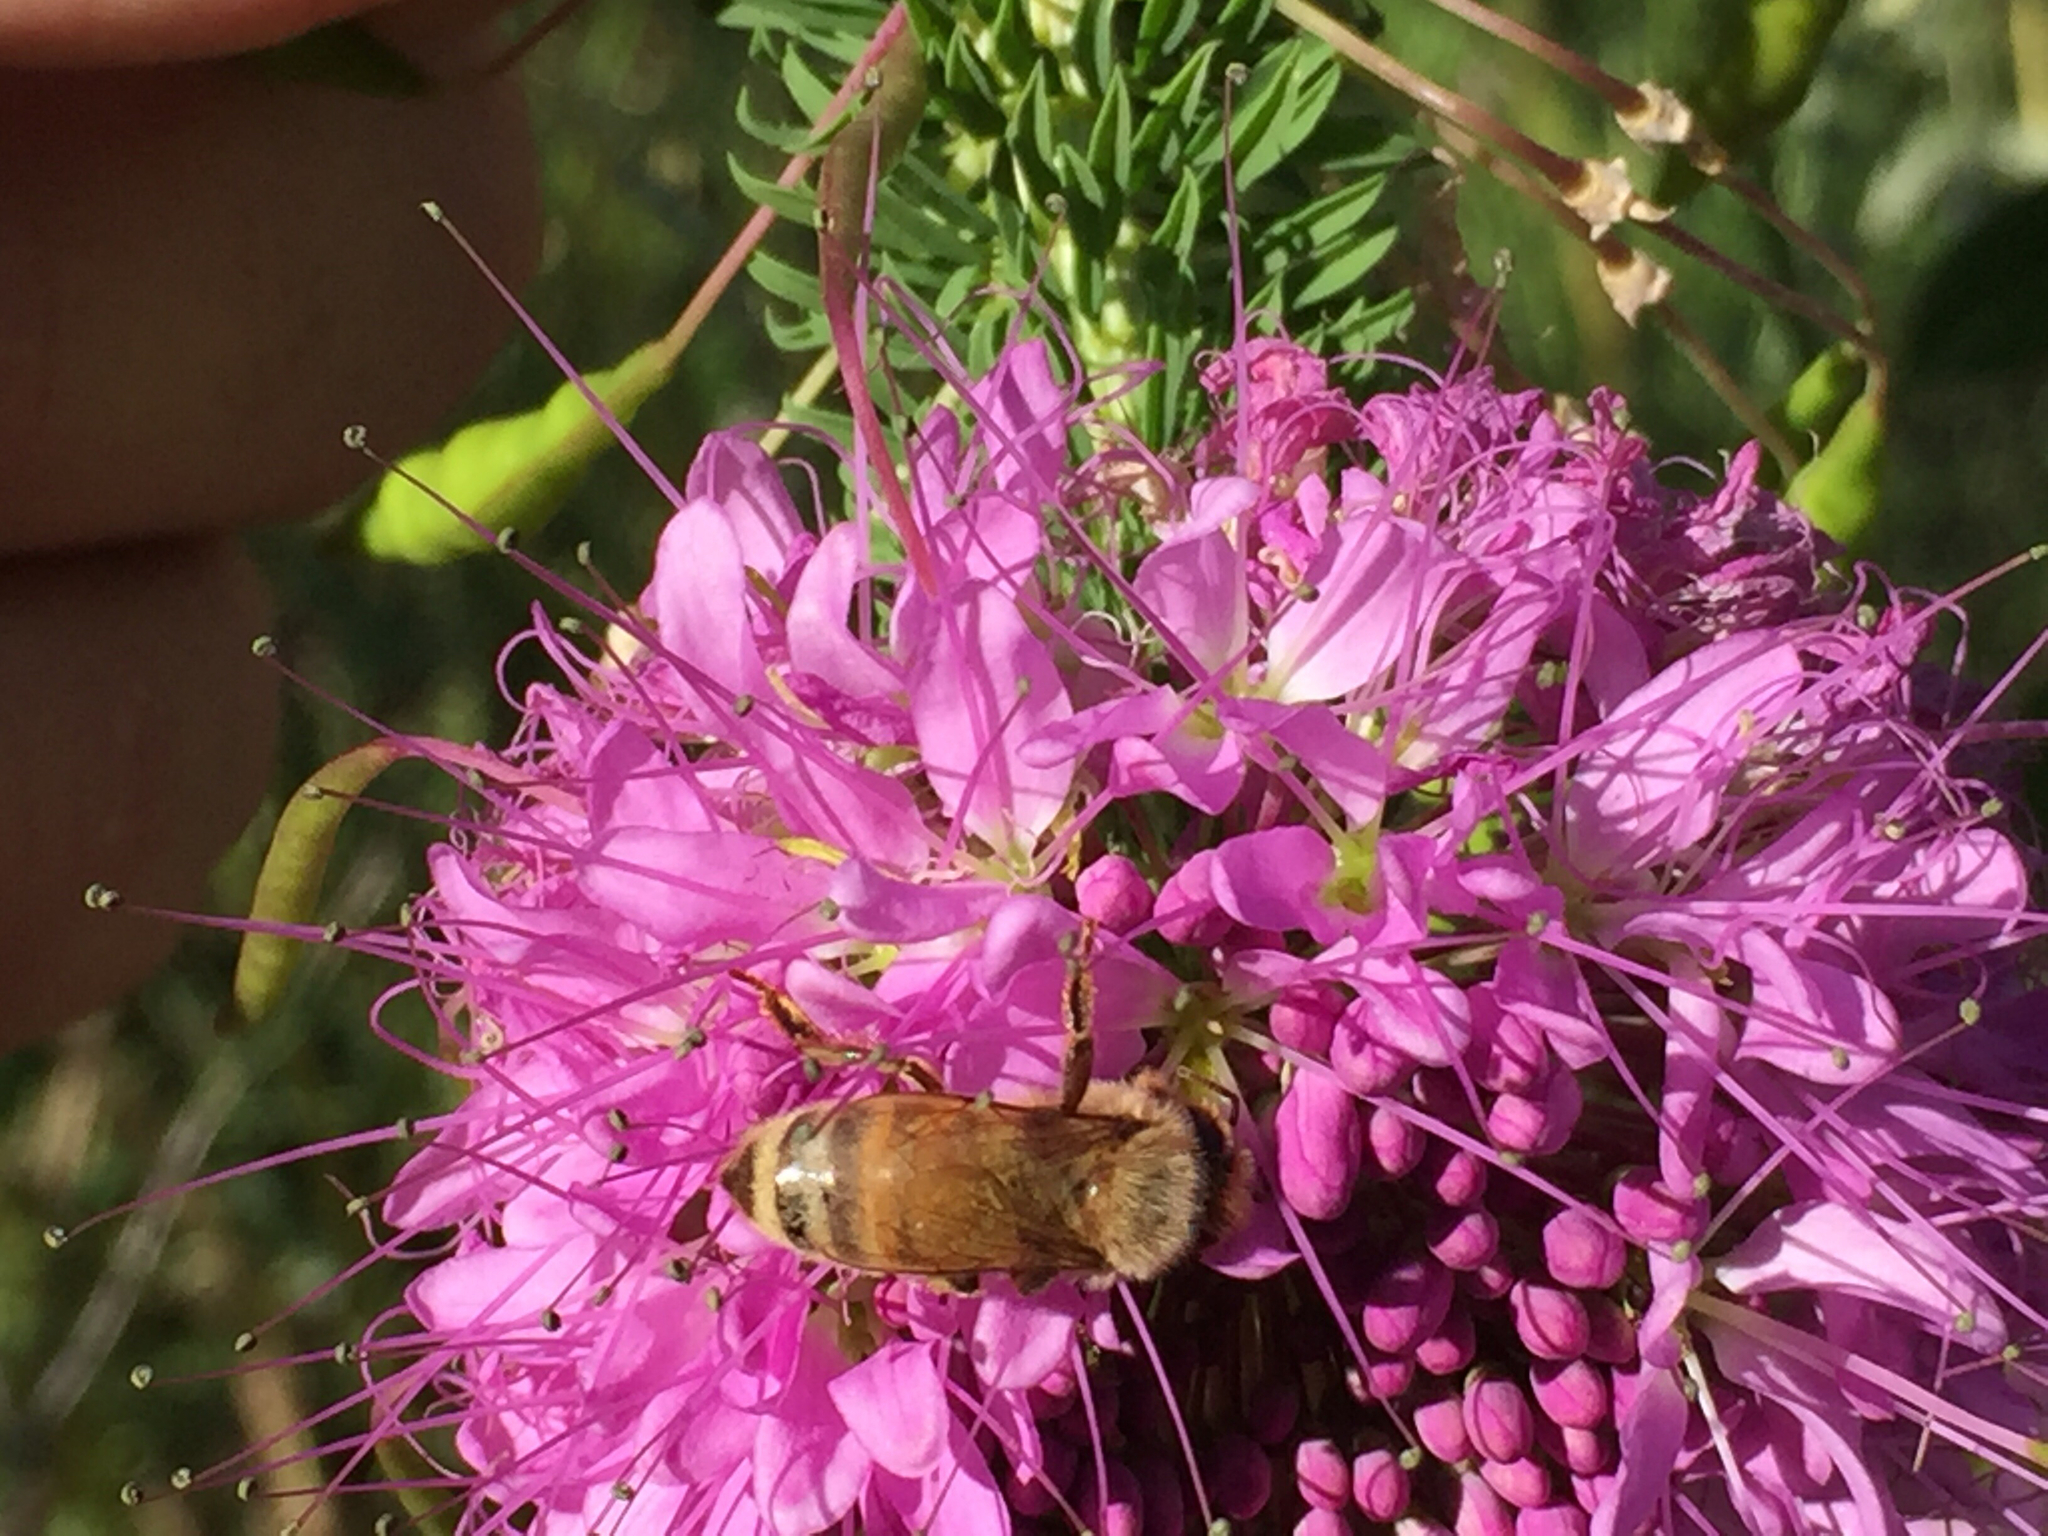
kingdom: Animalia
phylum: Arthropoda
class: Insecta
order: Hymenoptera
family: Apidae
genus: Apis
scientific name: Apis mellifera
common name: Honey bee
